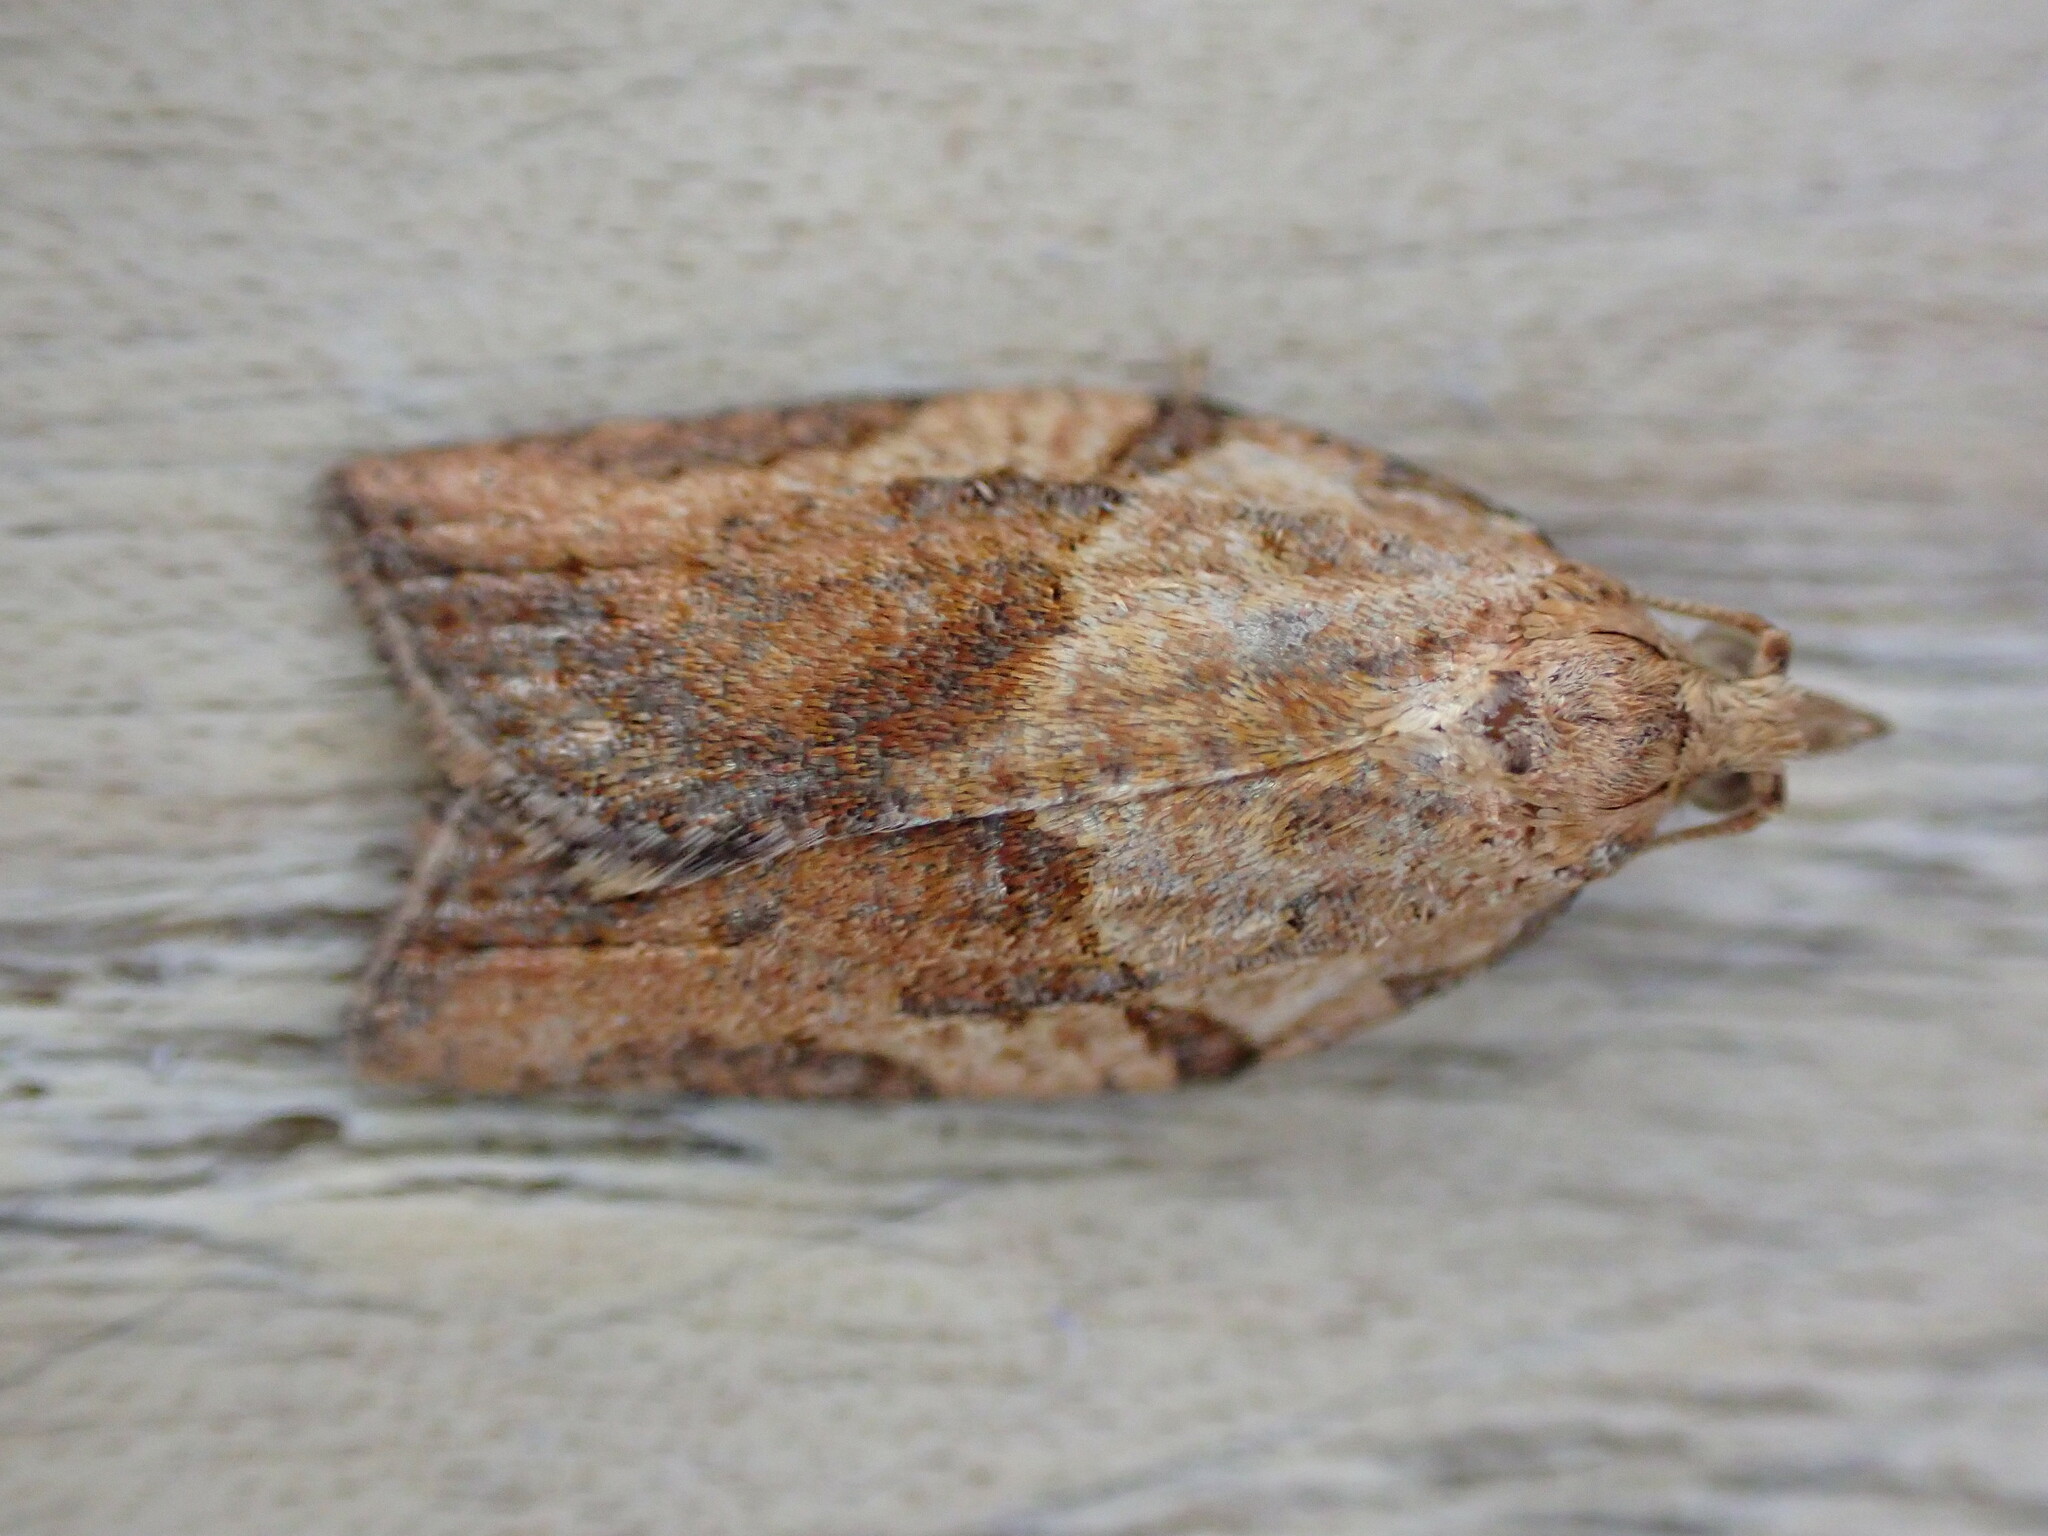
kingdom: Animalia
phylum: Arthropoda
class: Insecta
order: Lepidoptera
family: Tortricidae
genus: Epiphyas
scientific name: Epiphyas postvittana
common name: Light brown apple moth
